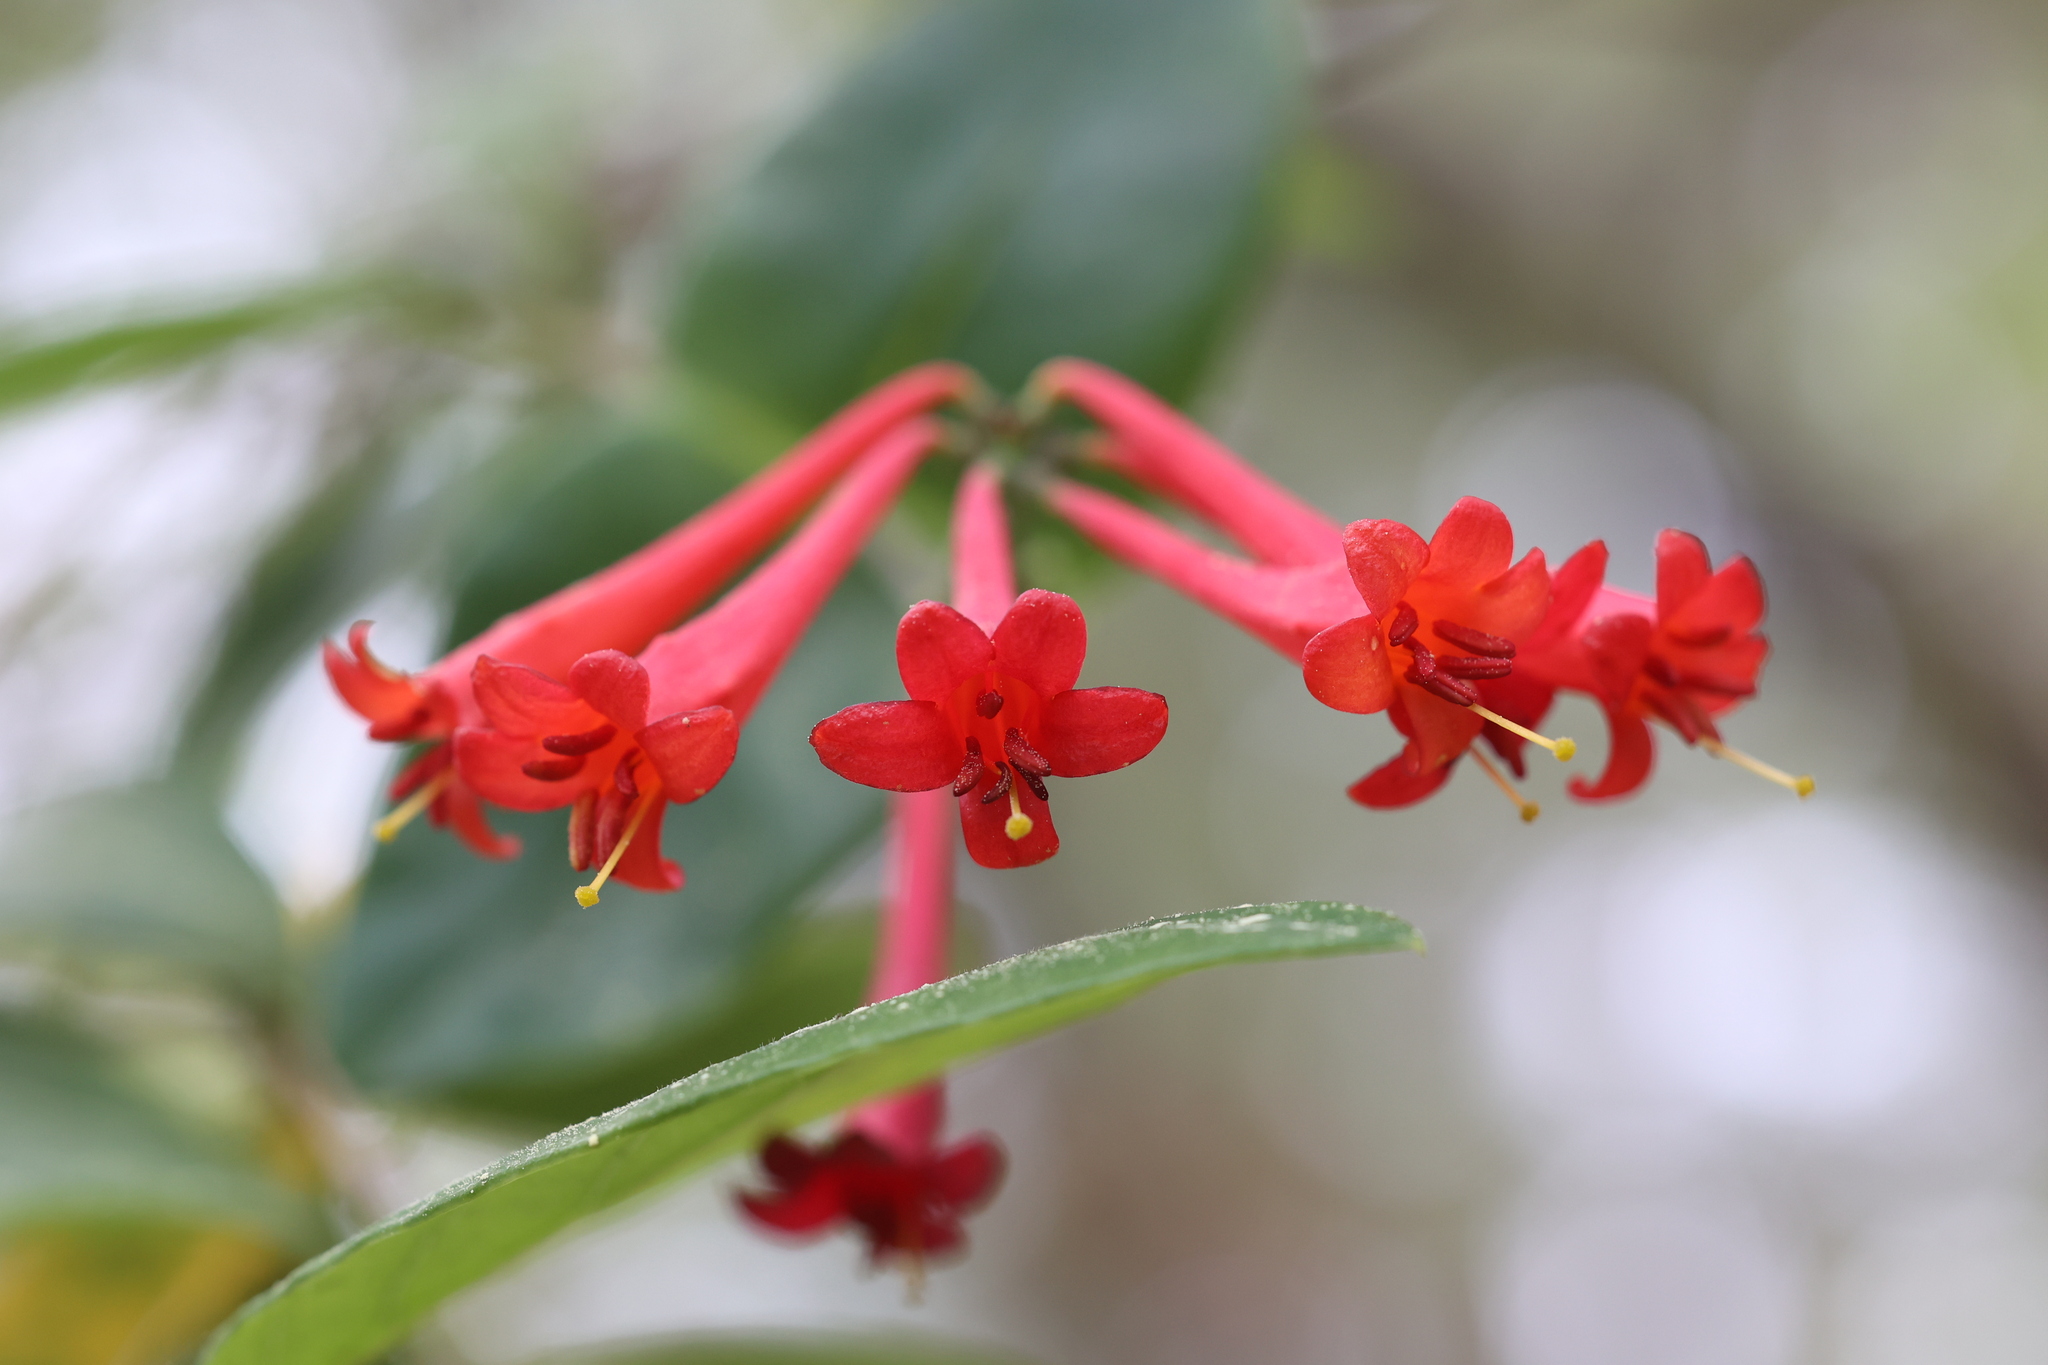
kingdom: Plantae
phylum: Tracheophyta
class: Magnoliopsida
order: Dipsacales
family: Caprifoliaceae
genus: Lonicera
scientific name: Lonicera sempervirens
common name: Coral honeysuckle
